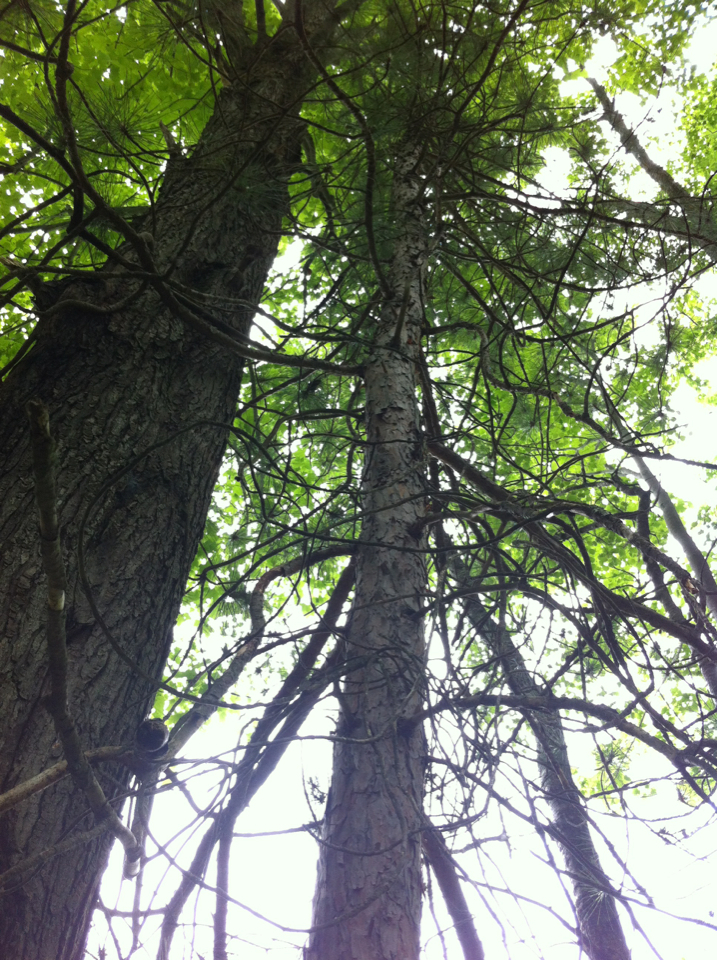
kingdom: Plantae
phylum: Tracheophyta
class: Pinopsida
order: Pinales
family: Pinaceae
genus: Pinus
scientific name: Pinus resinosa
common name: Norway pine
